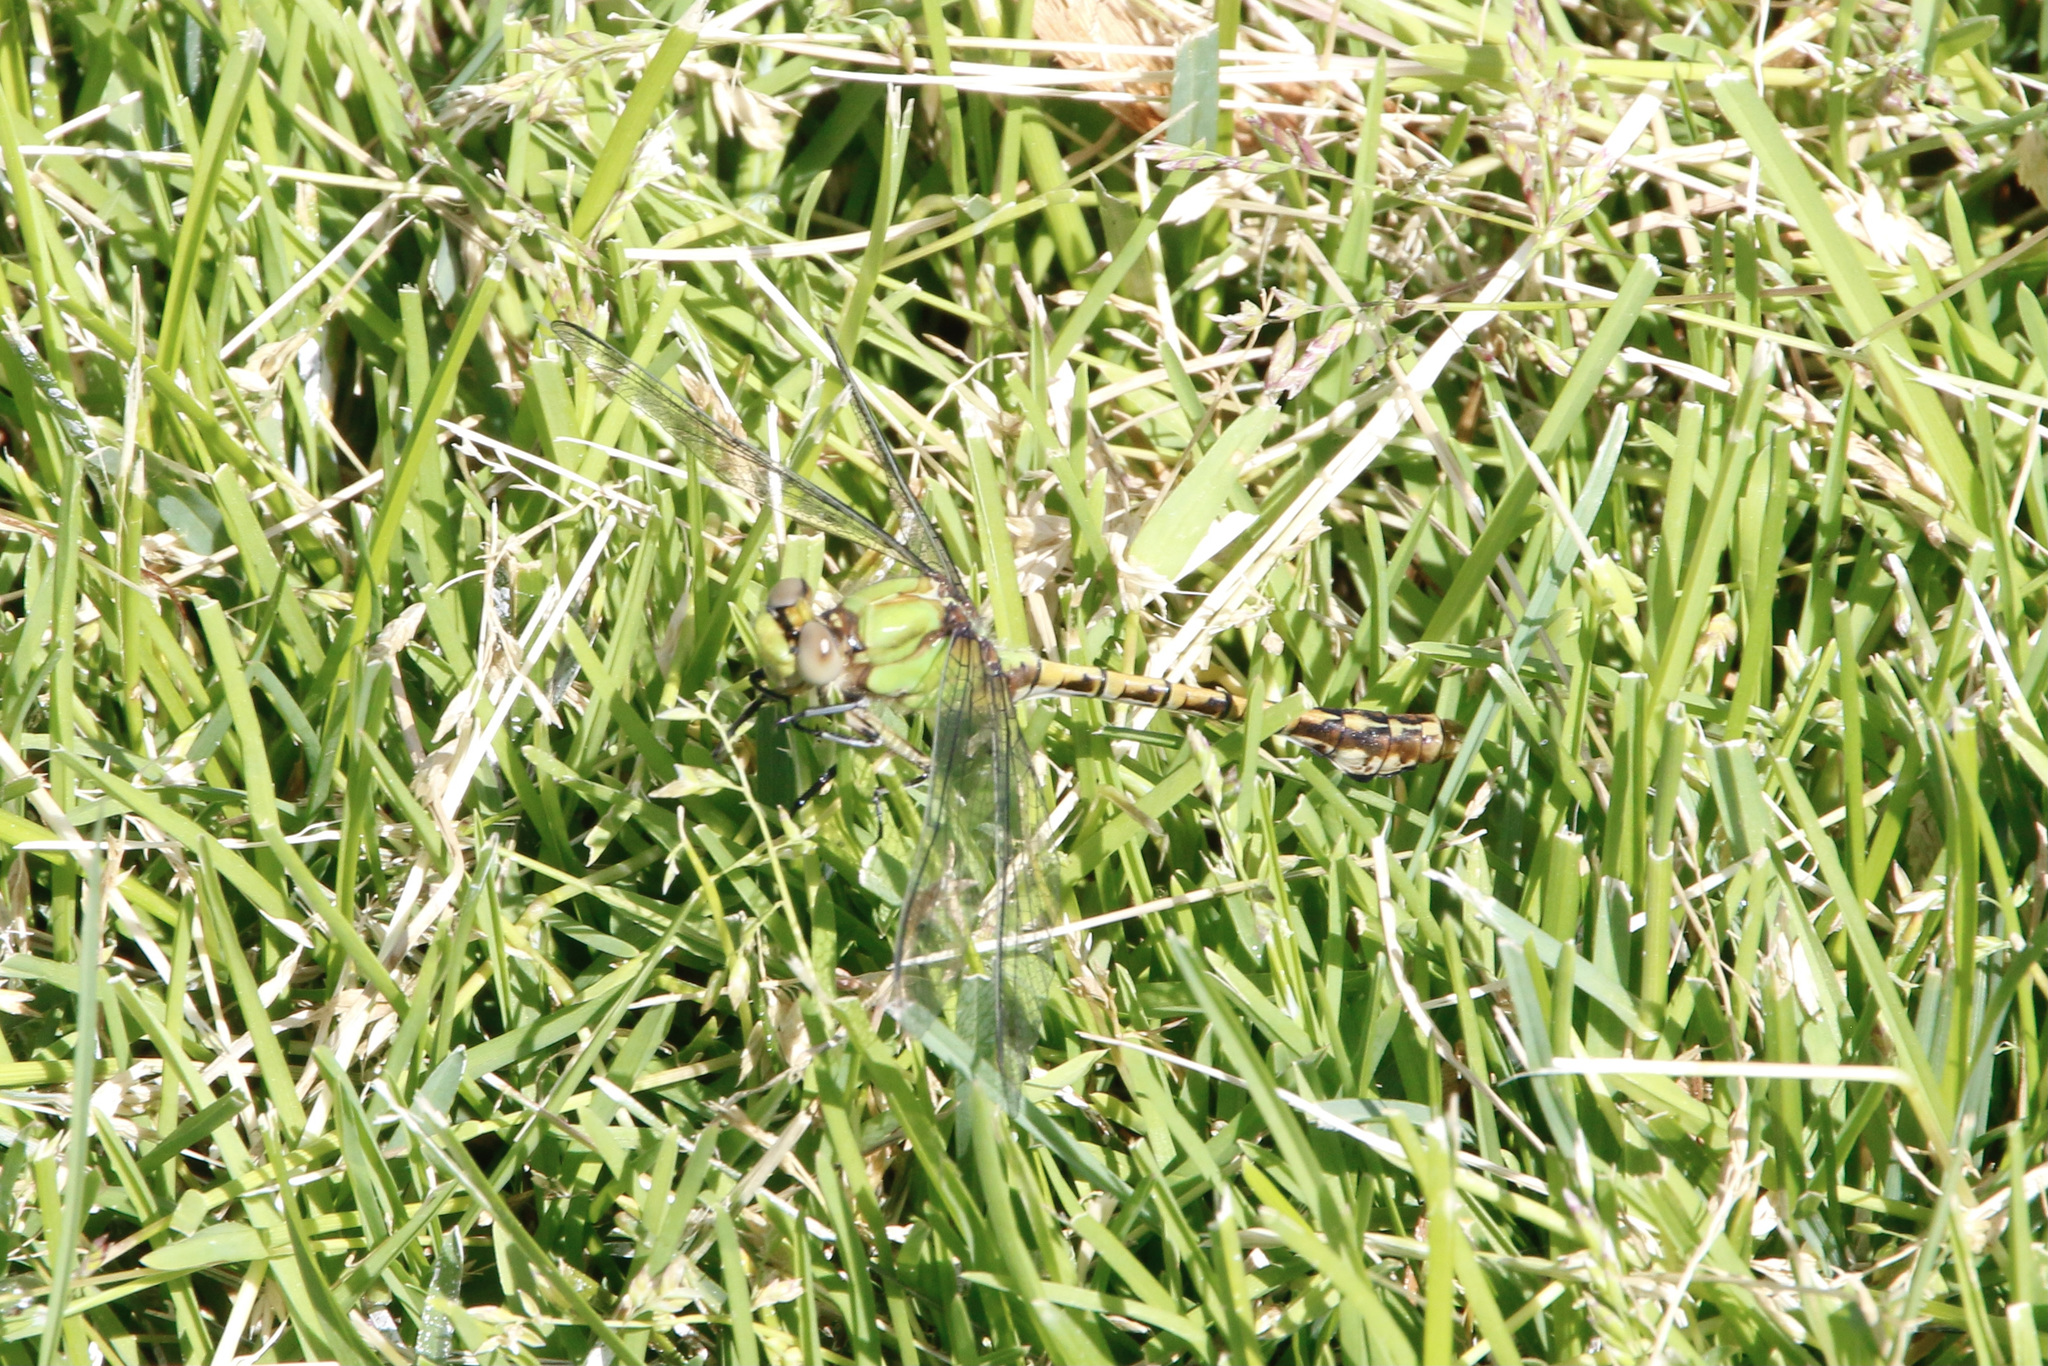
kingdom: Animalia
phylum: Arthropoda
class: Insecta
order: Odonata
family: Gomphidae
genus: Ophiogomphus
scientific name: Ophiogomphus rupinsulensis
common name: Rusty snaketail
